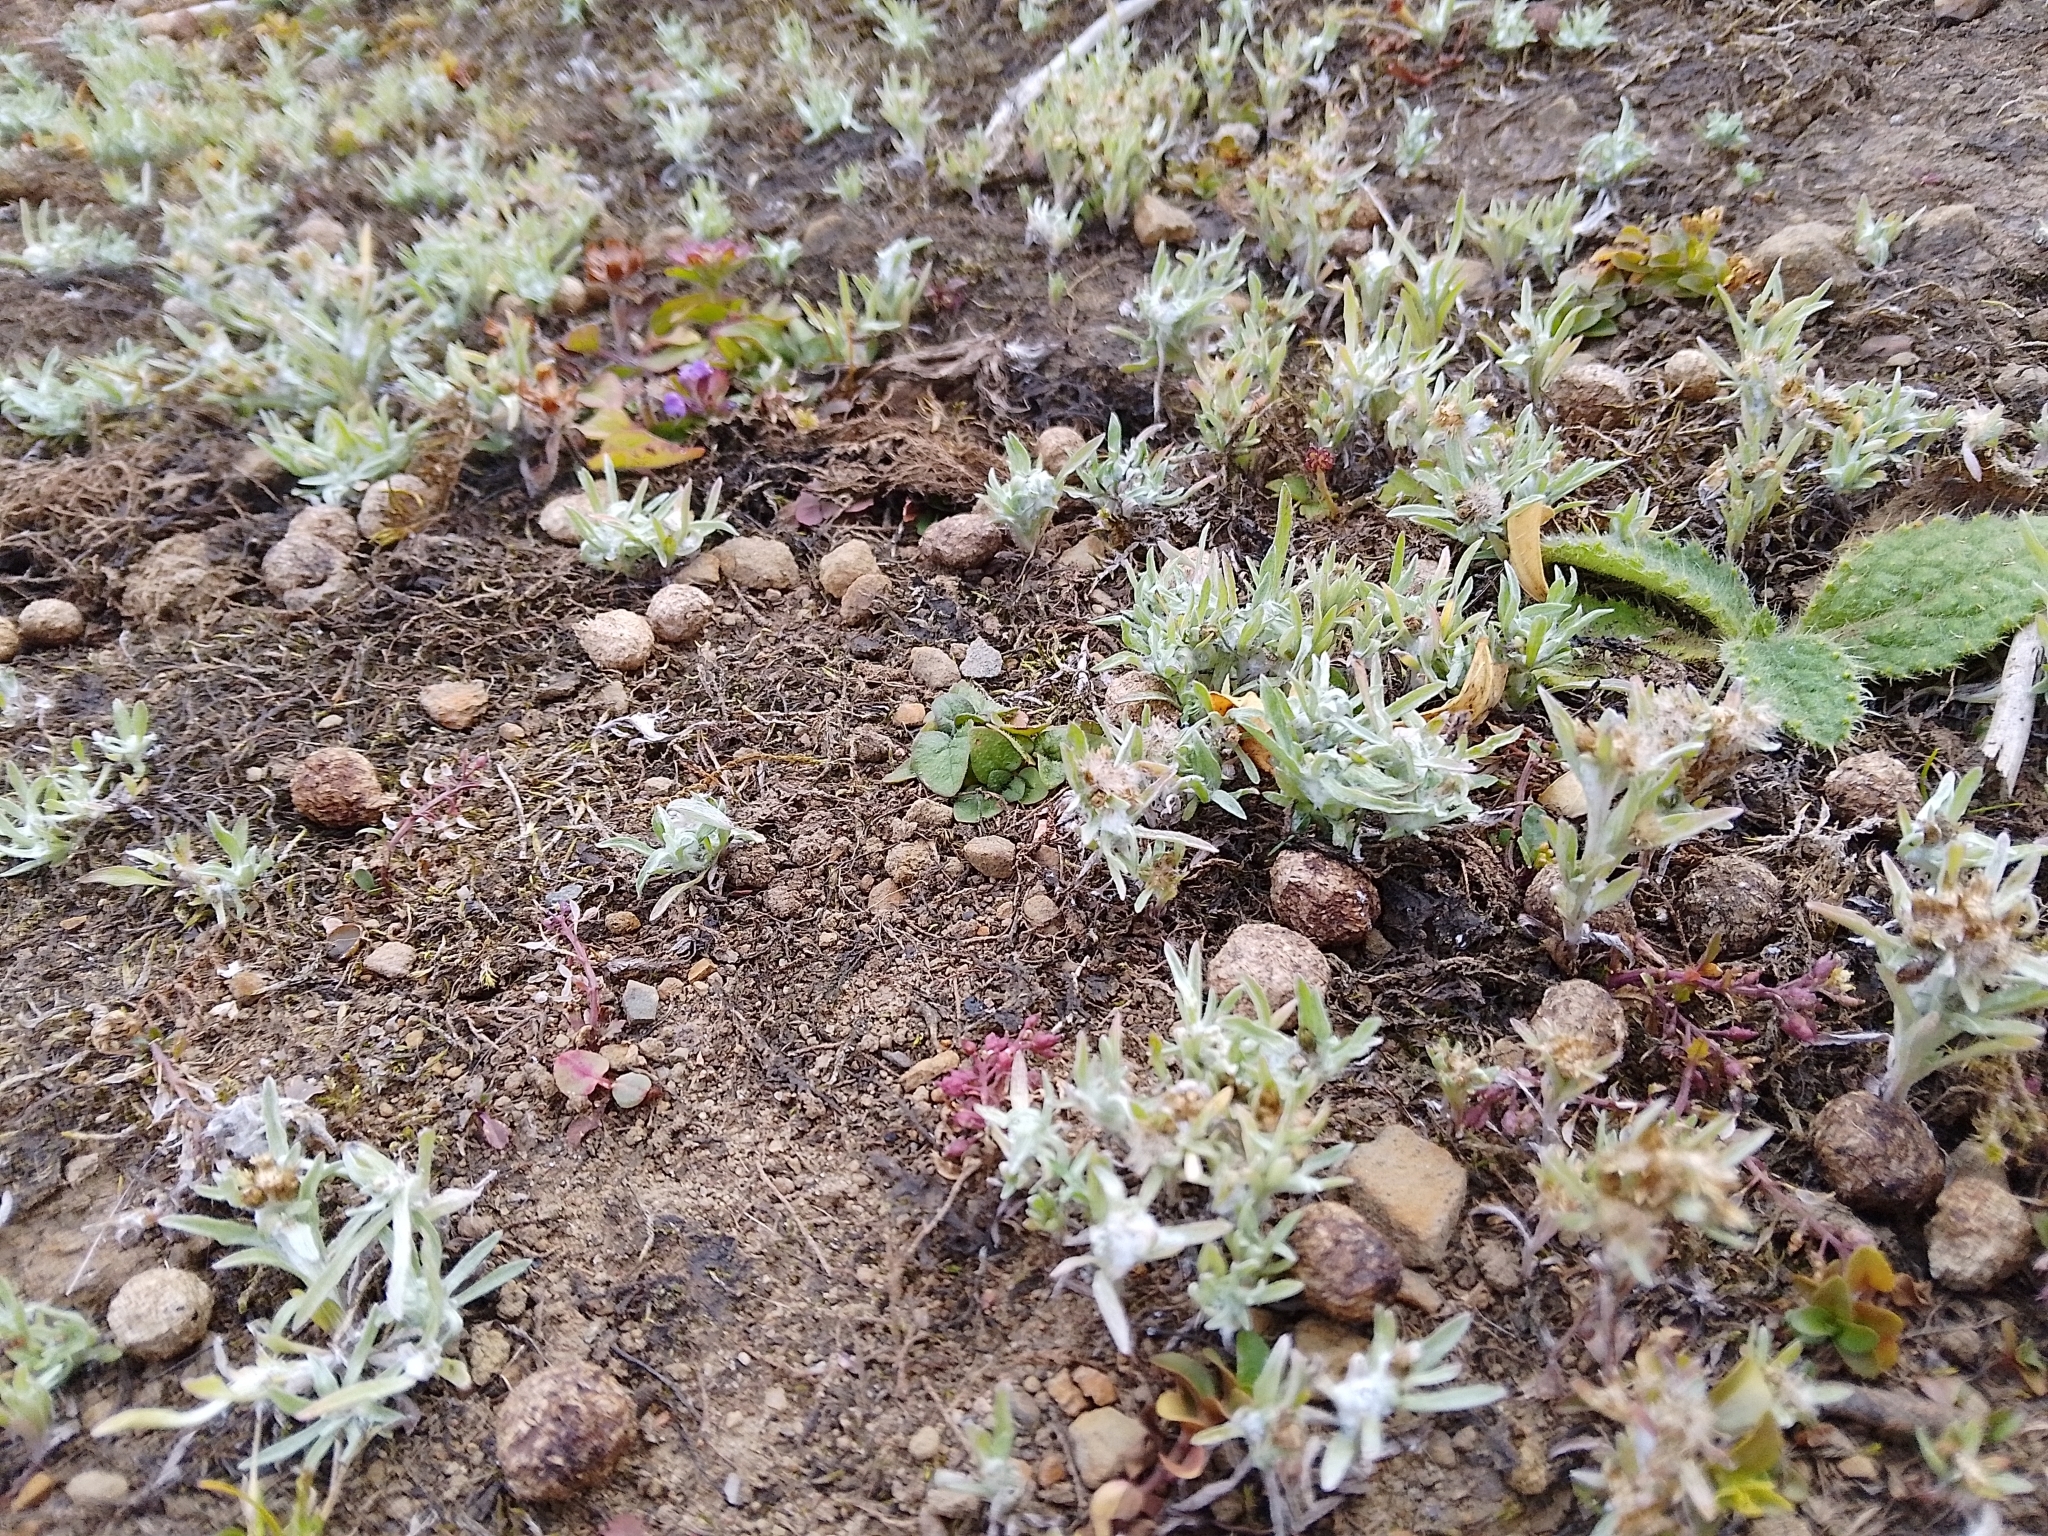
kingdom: Plantae
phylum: Tracheophyta
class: Magnoliopsida
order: Asterales
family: Asteraceae
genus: Gnaphalium
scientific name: Gnaphalium uliginosum
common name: Marsh cudweed
